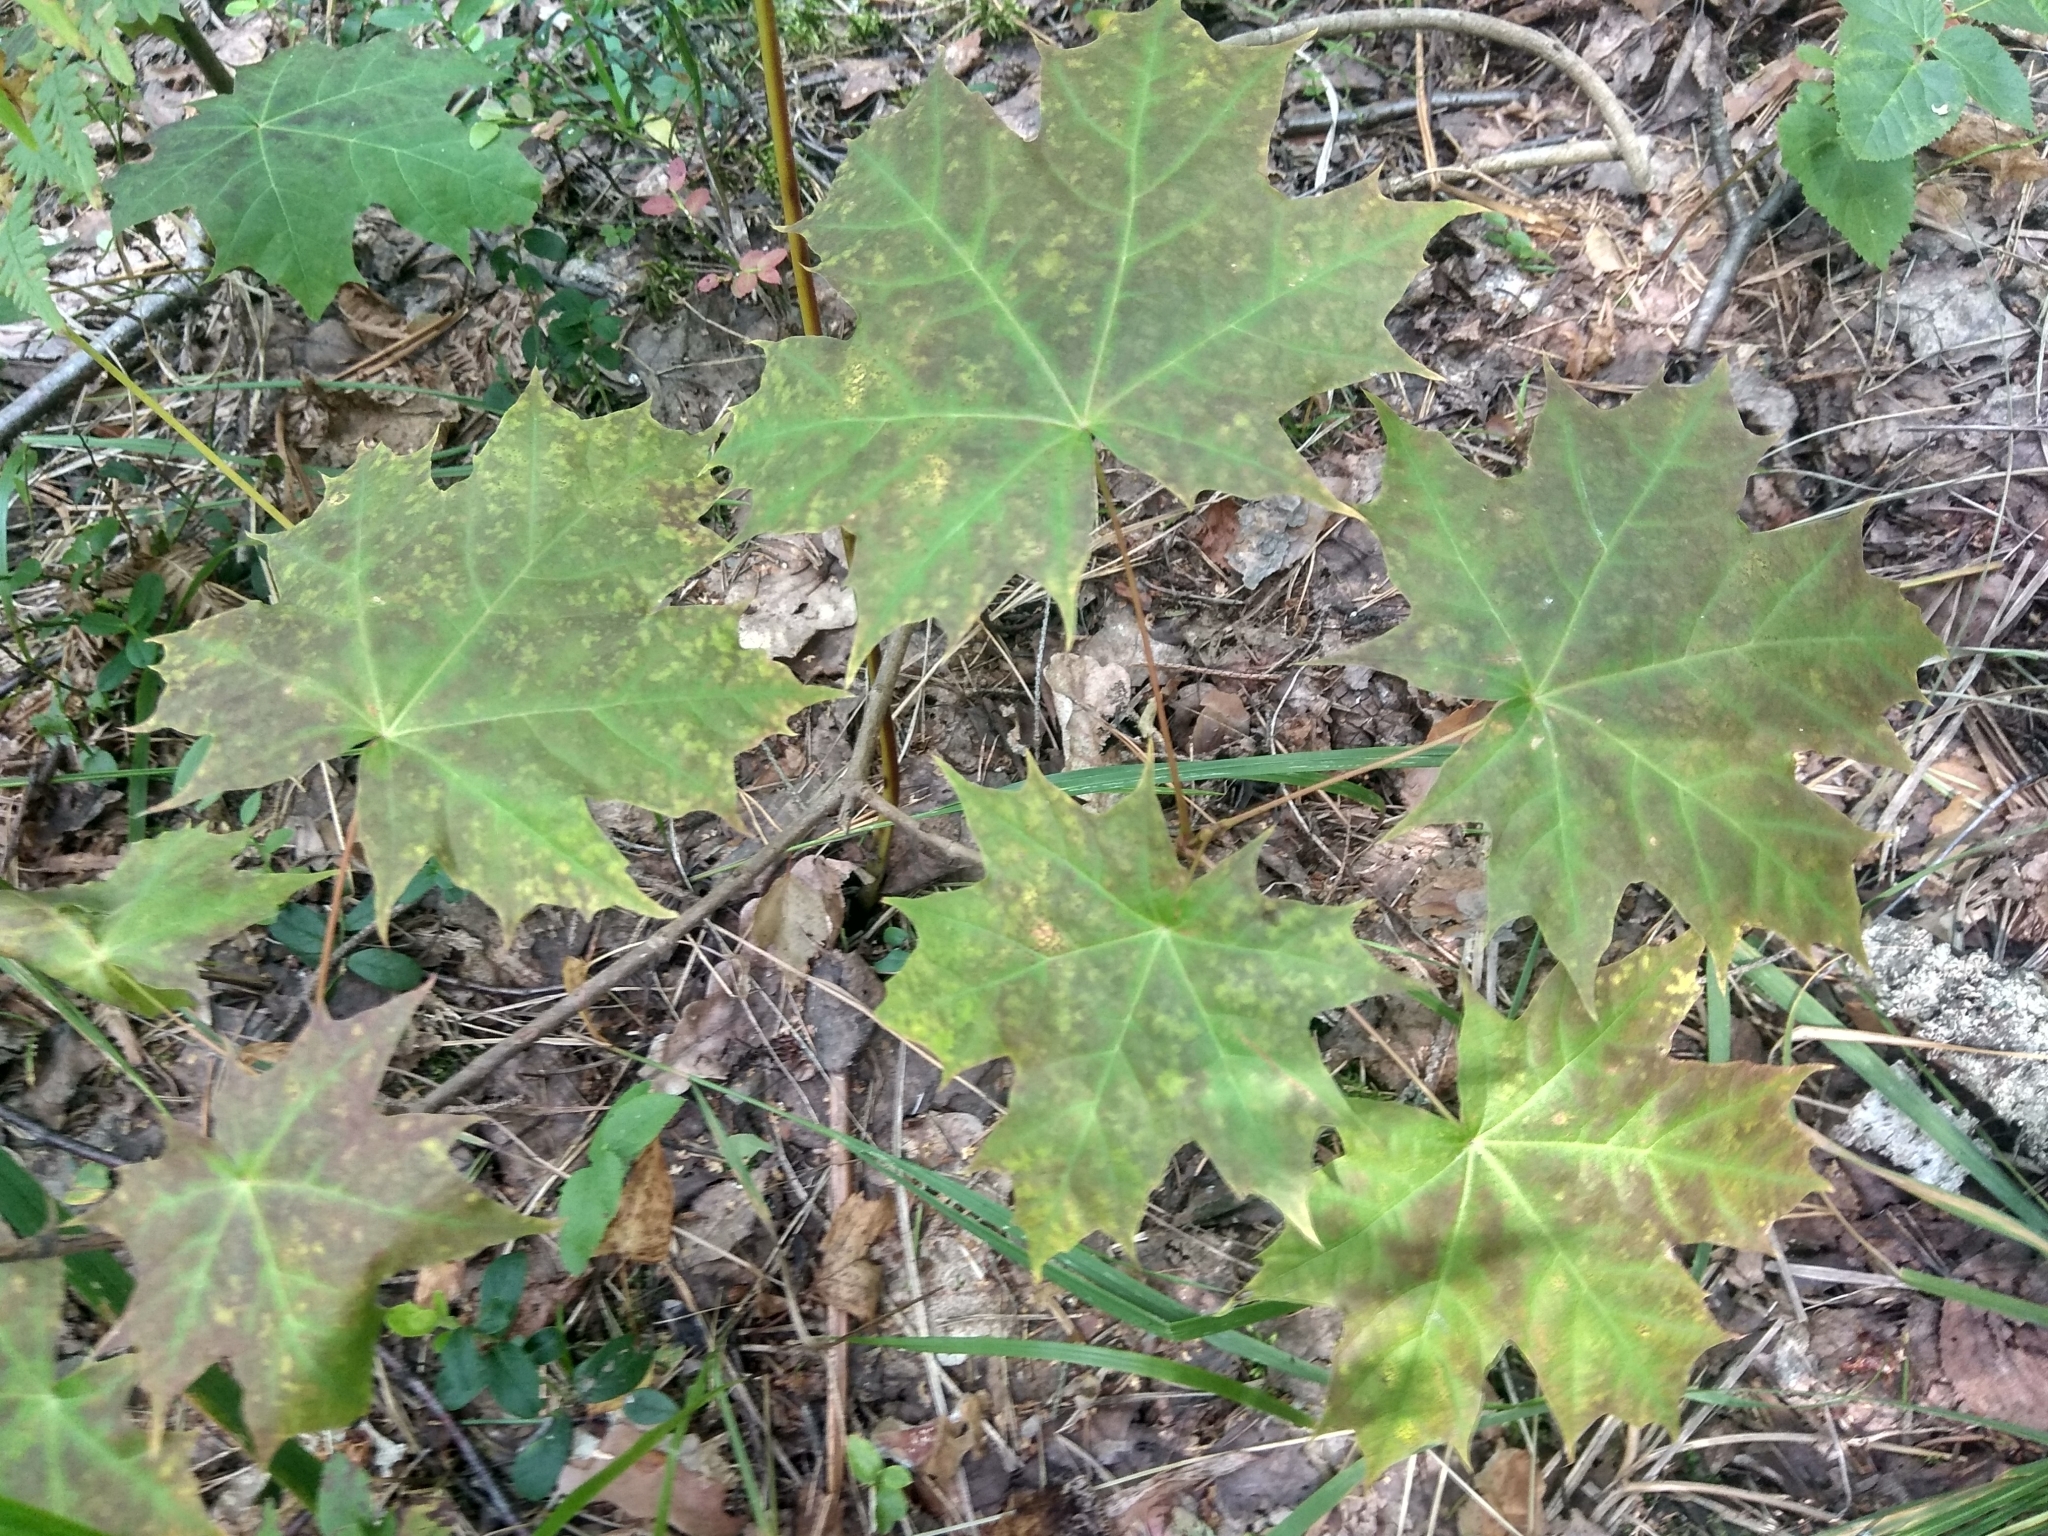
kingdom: Plantae
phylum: Tracheophyta
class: Magnoliopsida
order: Sapindales
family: Sapindaceae
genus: Acer
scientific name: Acer platanoides
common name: Norway maple
